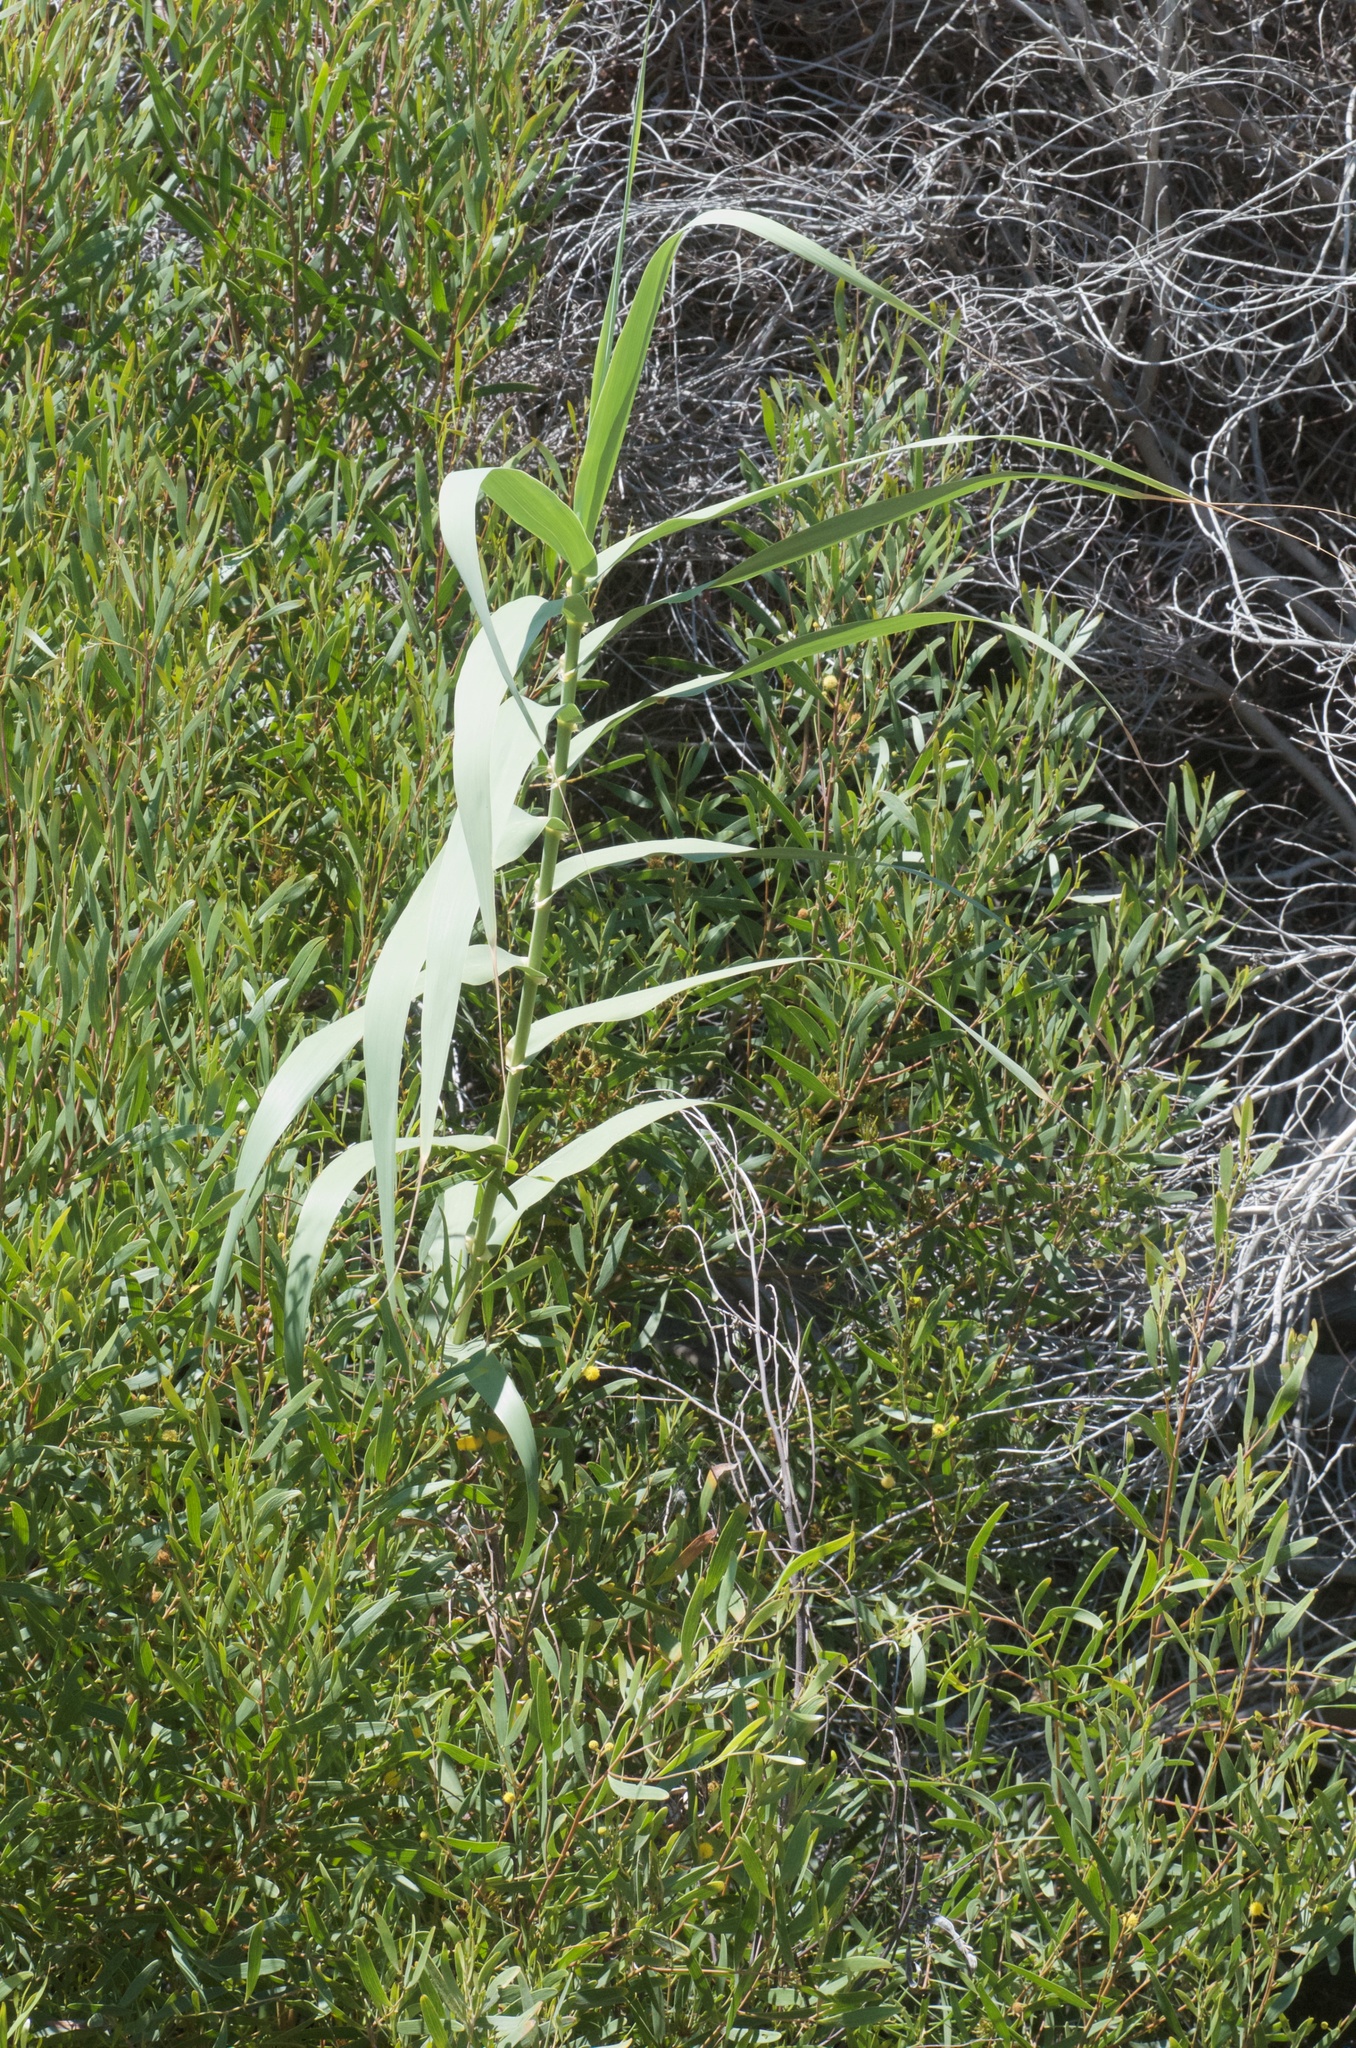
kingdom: Plantae
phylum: Tracheophyta
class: Liliopsida
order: Poales
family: Poaceae
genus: Arundo
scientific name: Arundo donax
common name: Giant reed
